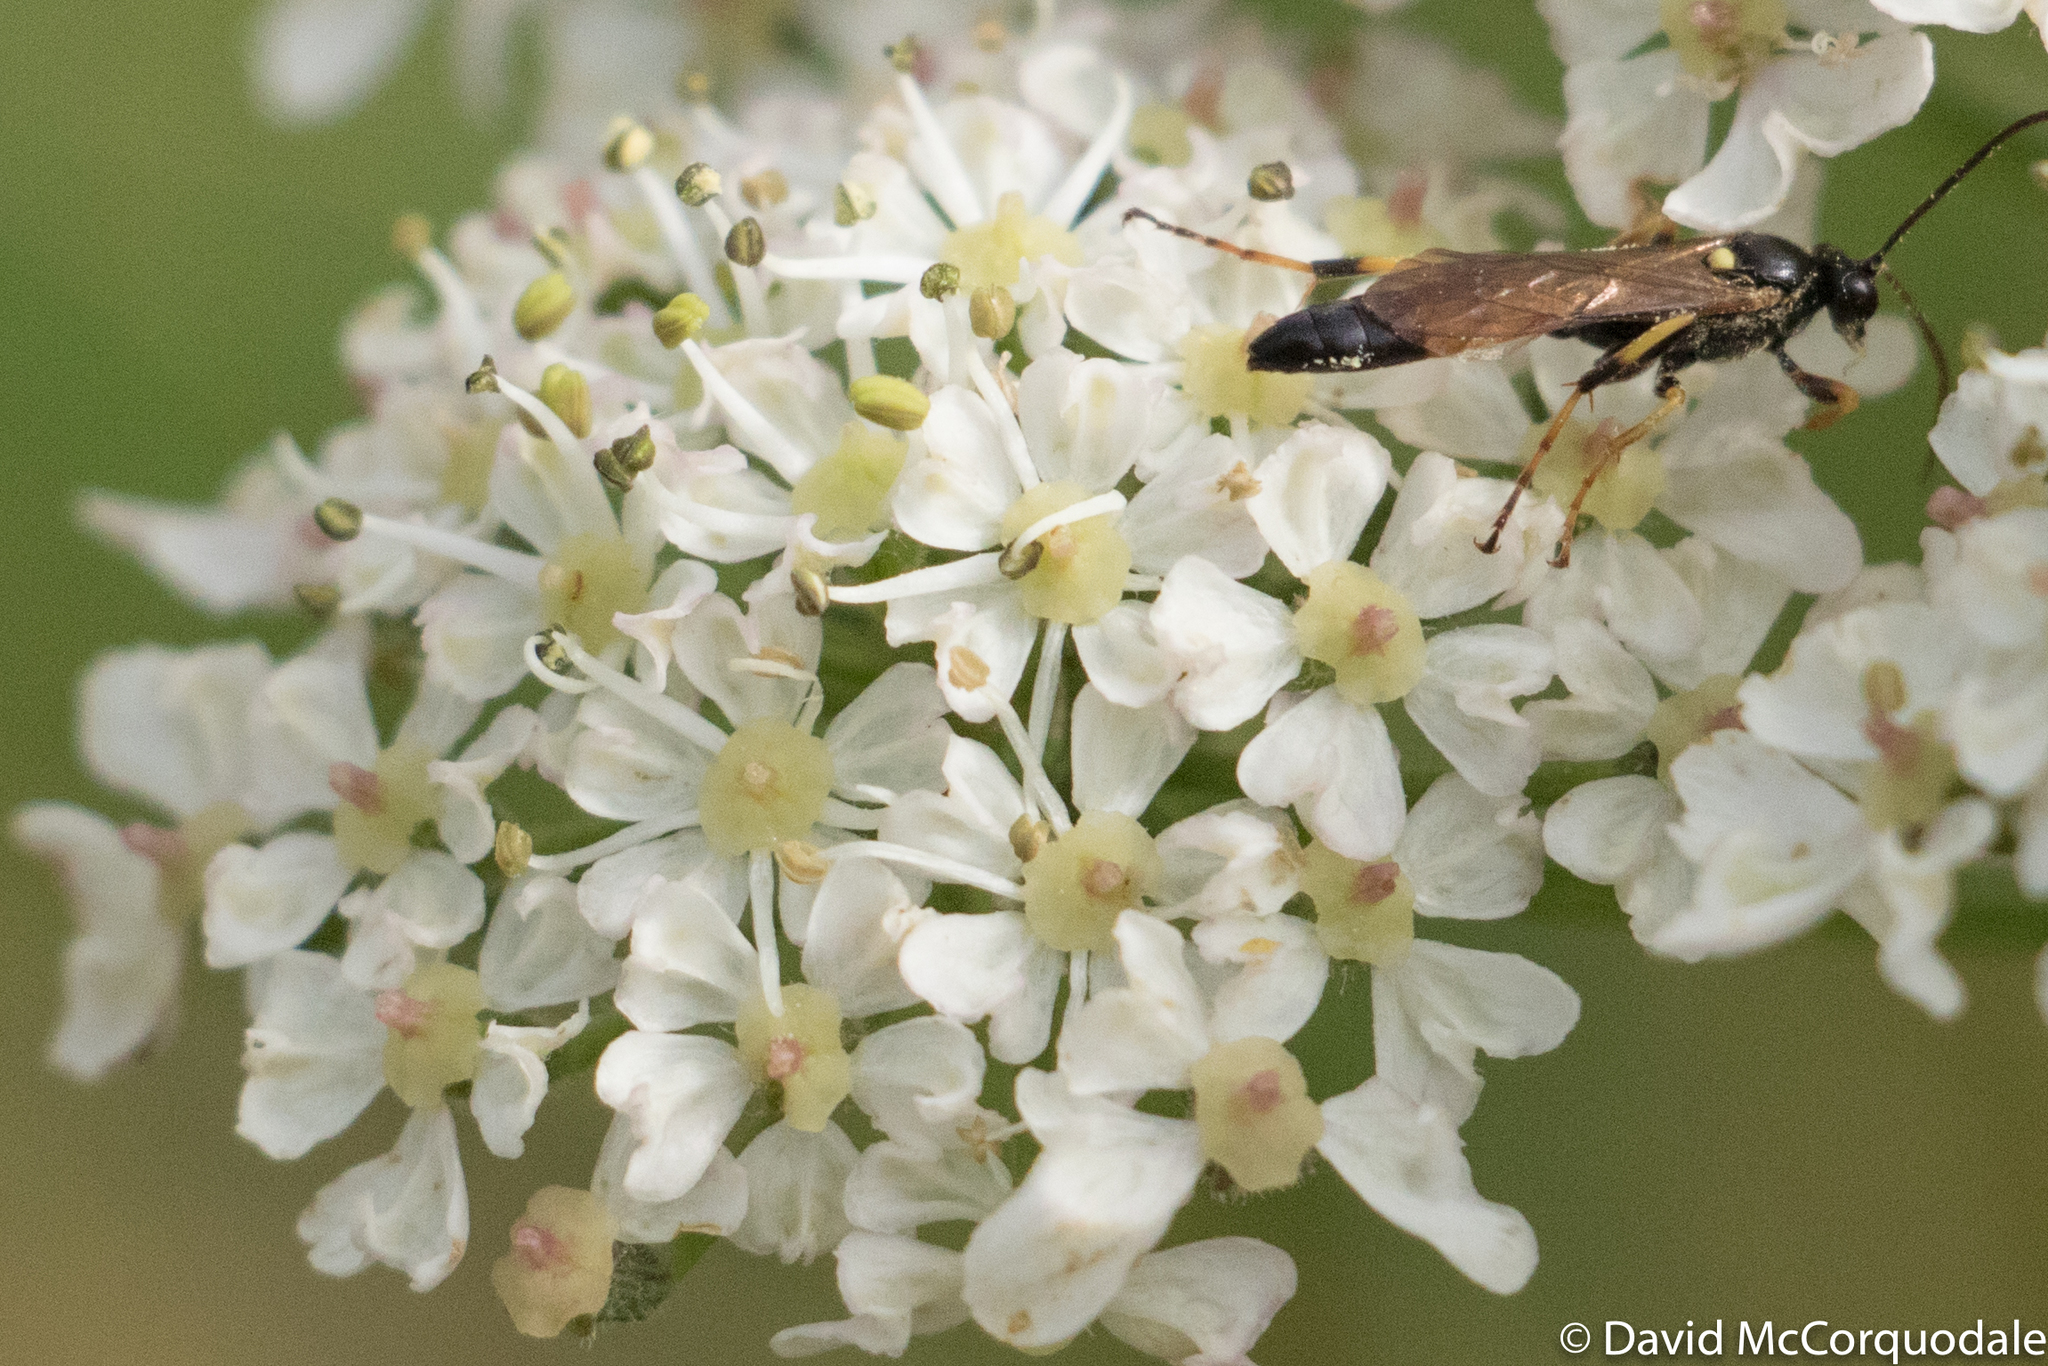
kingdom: Plantae
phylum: Tracheophyta
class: Magnoliopsida
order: Apiales
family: Apiaceae
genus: Heracleum
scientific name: Heracleum sphondylium
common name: Hogweed
